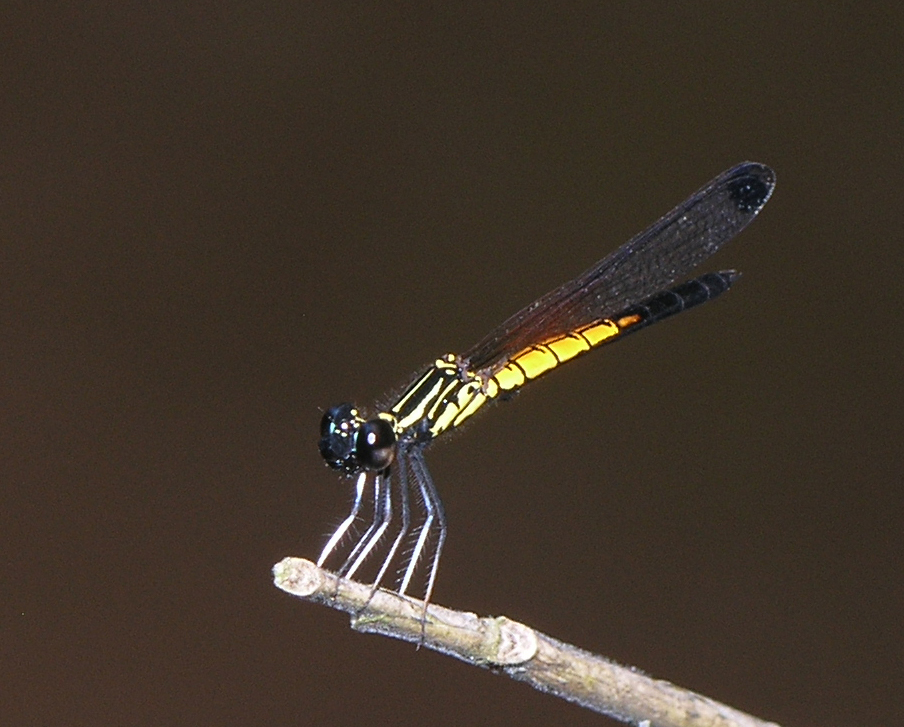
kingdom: Animalia
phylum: Arthropoda
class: Insecta
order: Odonata
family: Chlorocyphidae
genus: Libellago
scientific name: Libellago lineata
